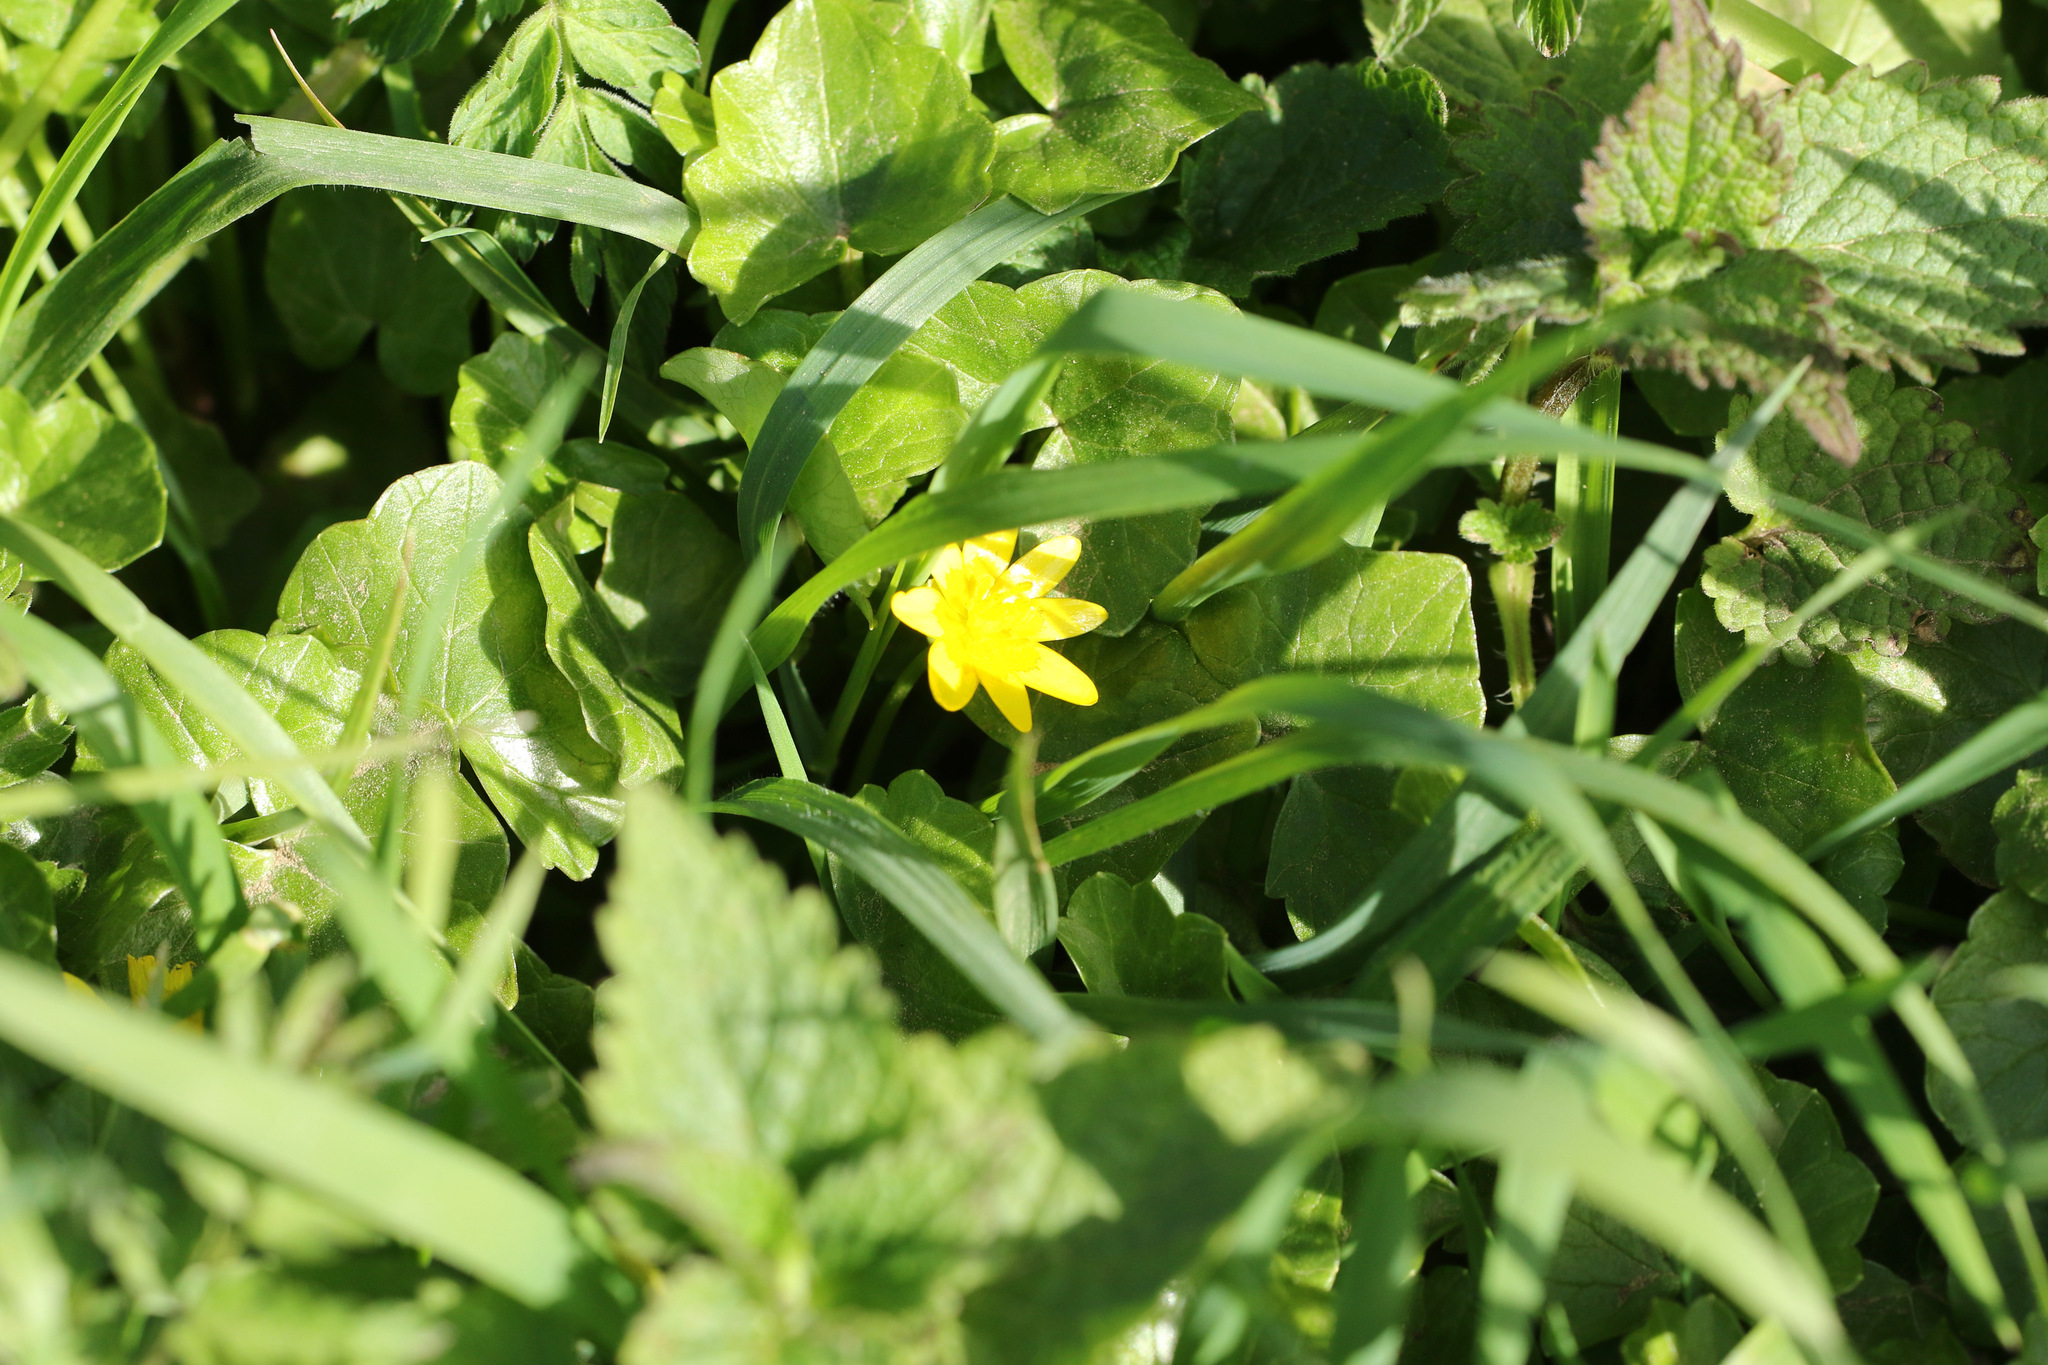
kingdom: Plantae
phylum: Tracheophyta
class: Magnoliopsida
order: Ranunculales
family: Ranunculaceae
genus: Ficaria
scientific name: Ficaria verna
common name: Lesser celandine
